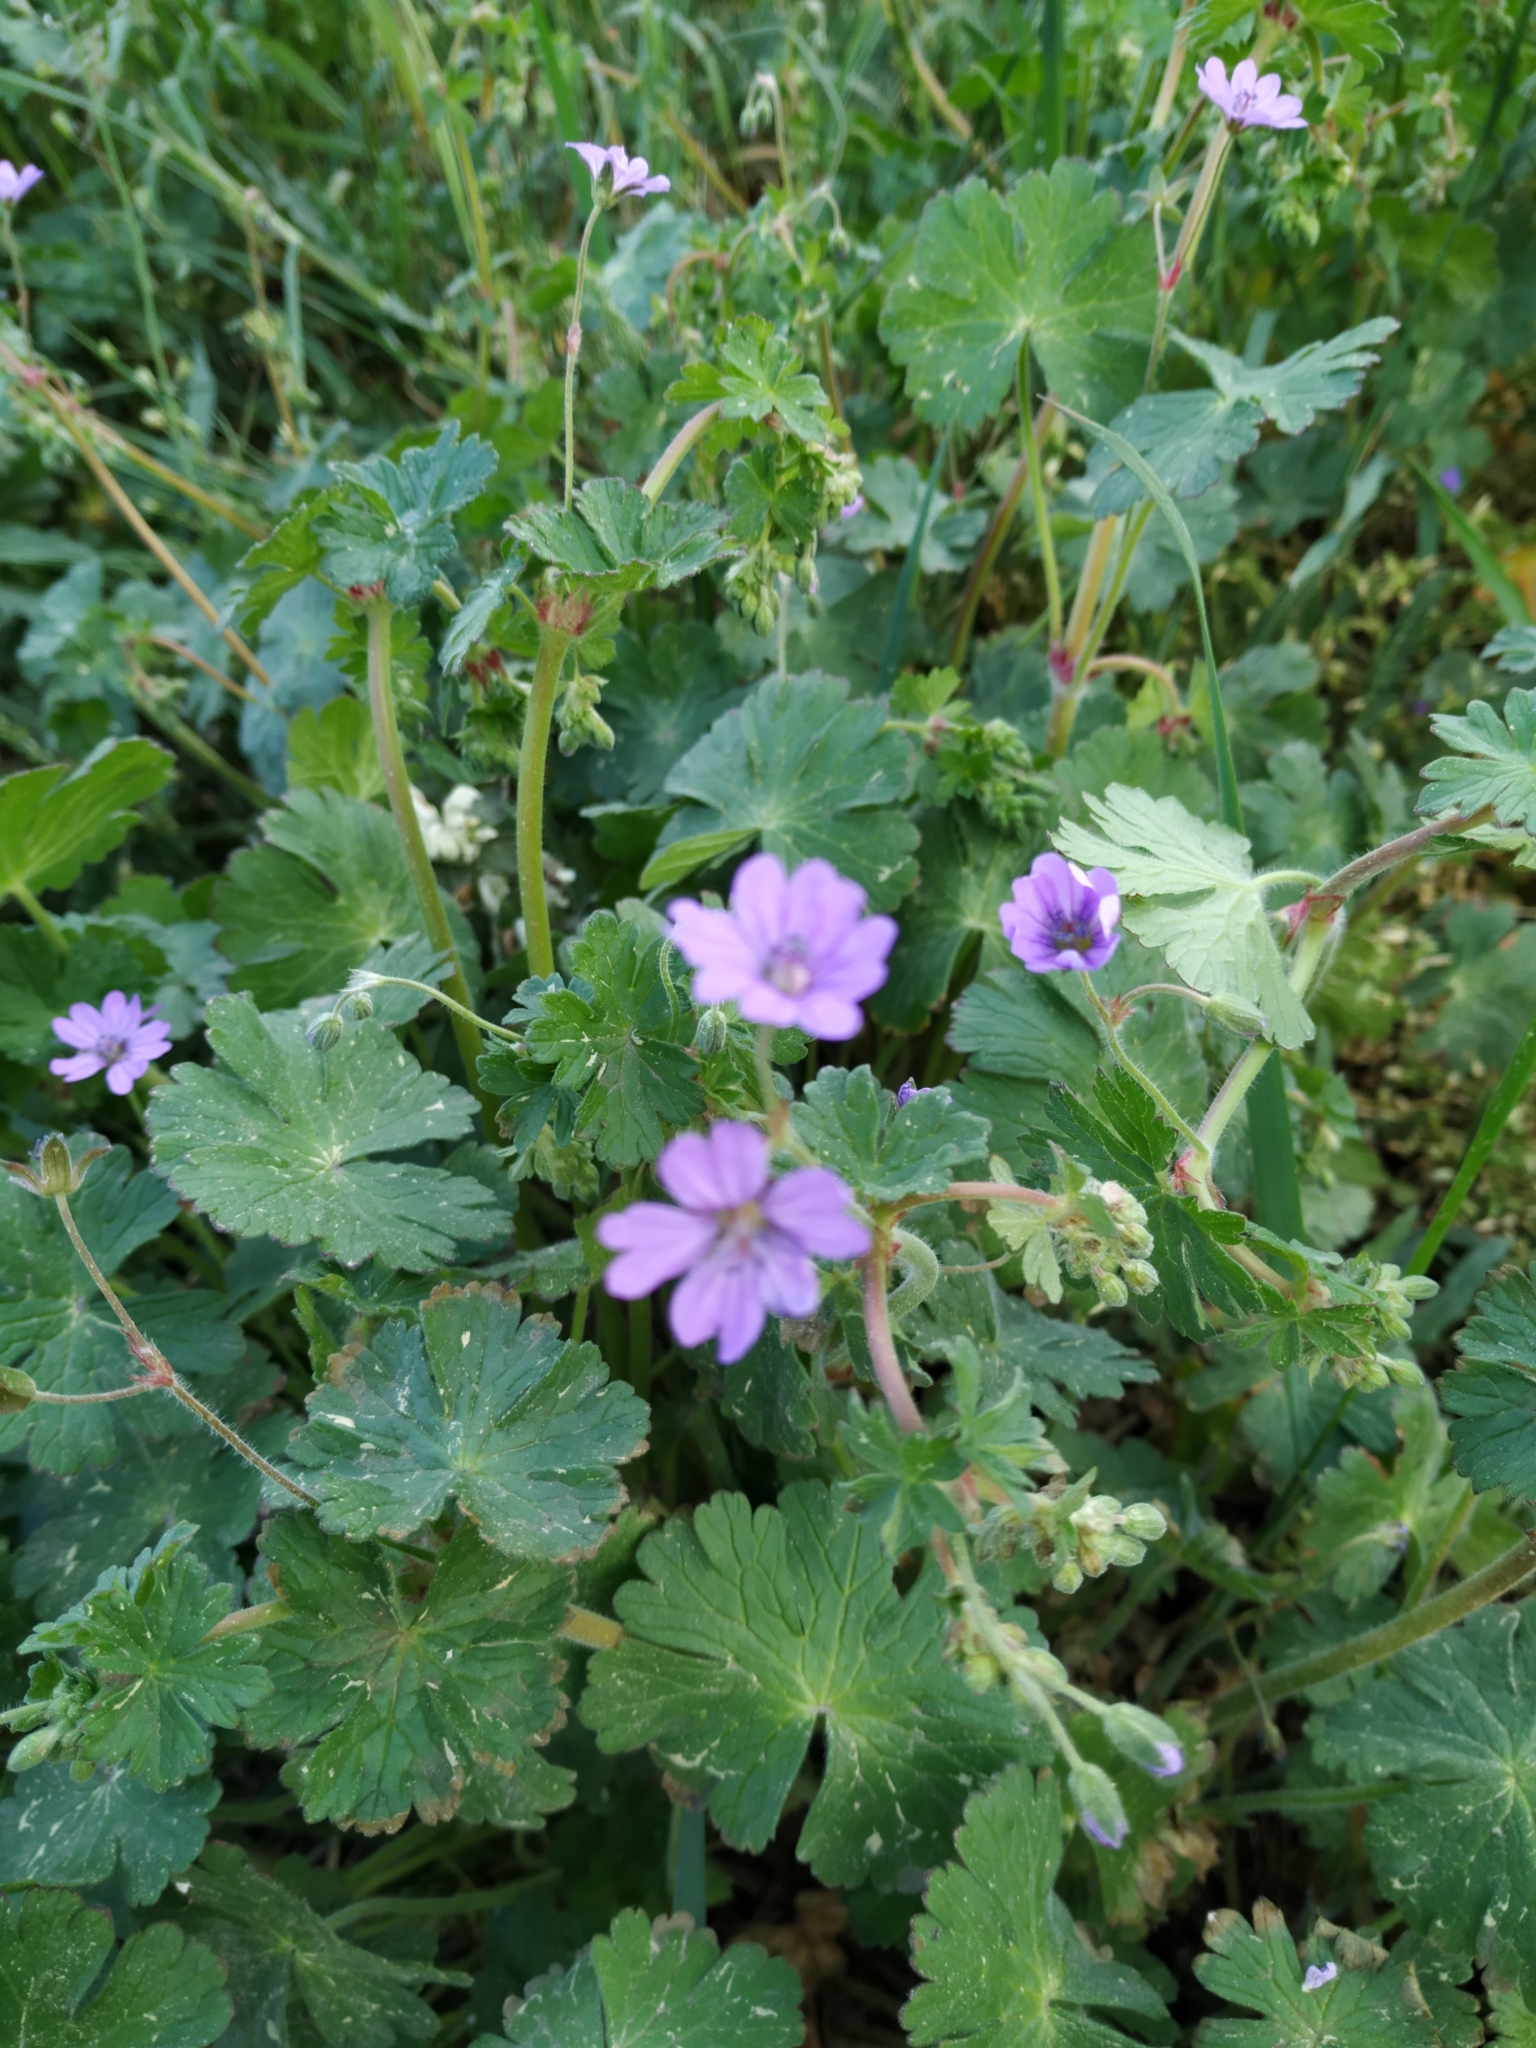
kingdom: Plantae
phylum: Tracheophyta
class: Magnoliopsida
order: Geraniales
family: Geraniaceae
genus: Geranium
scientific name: Geranium pyrenaicum
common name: Hedgerow crane's-bill
